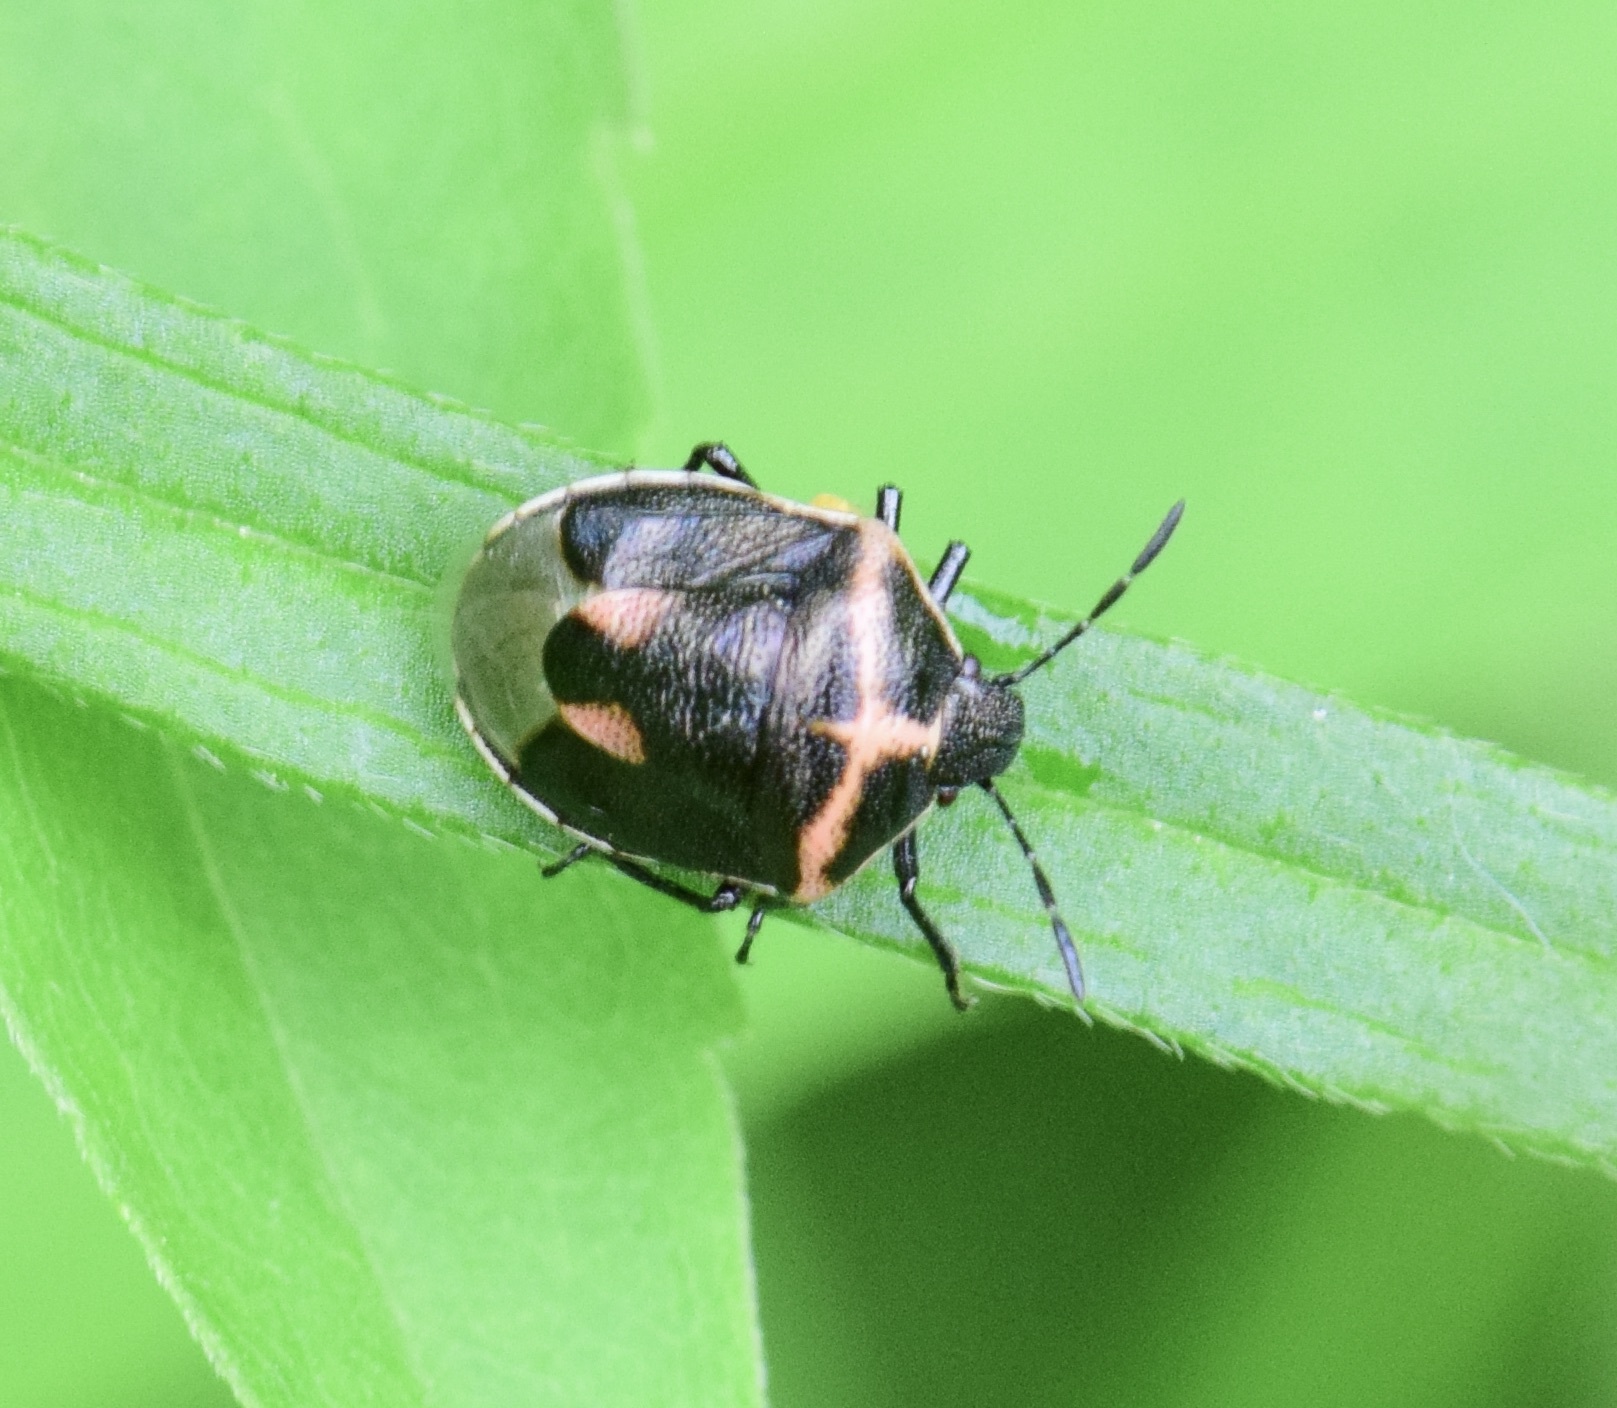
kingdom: Animalia
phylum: Arthropoda
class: Insecta
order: Hemiptera
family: Pentatomidae
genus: Cosmopepla
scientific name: Cosmopepla lintneriana
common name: Twice-stabbed stink bug
